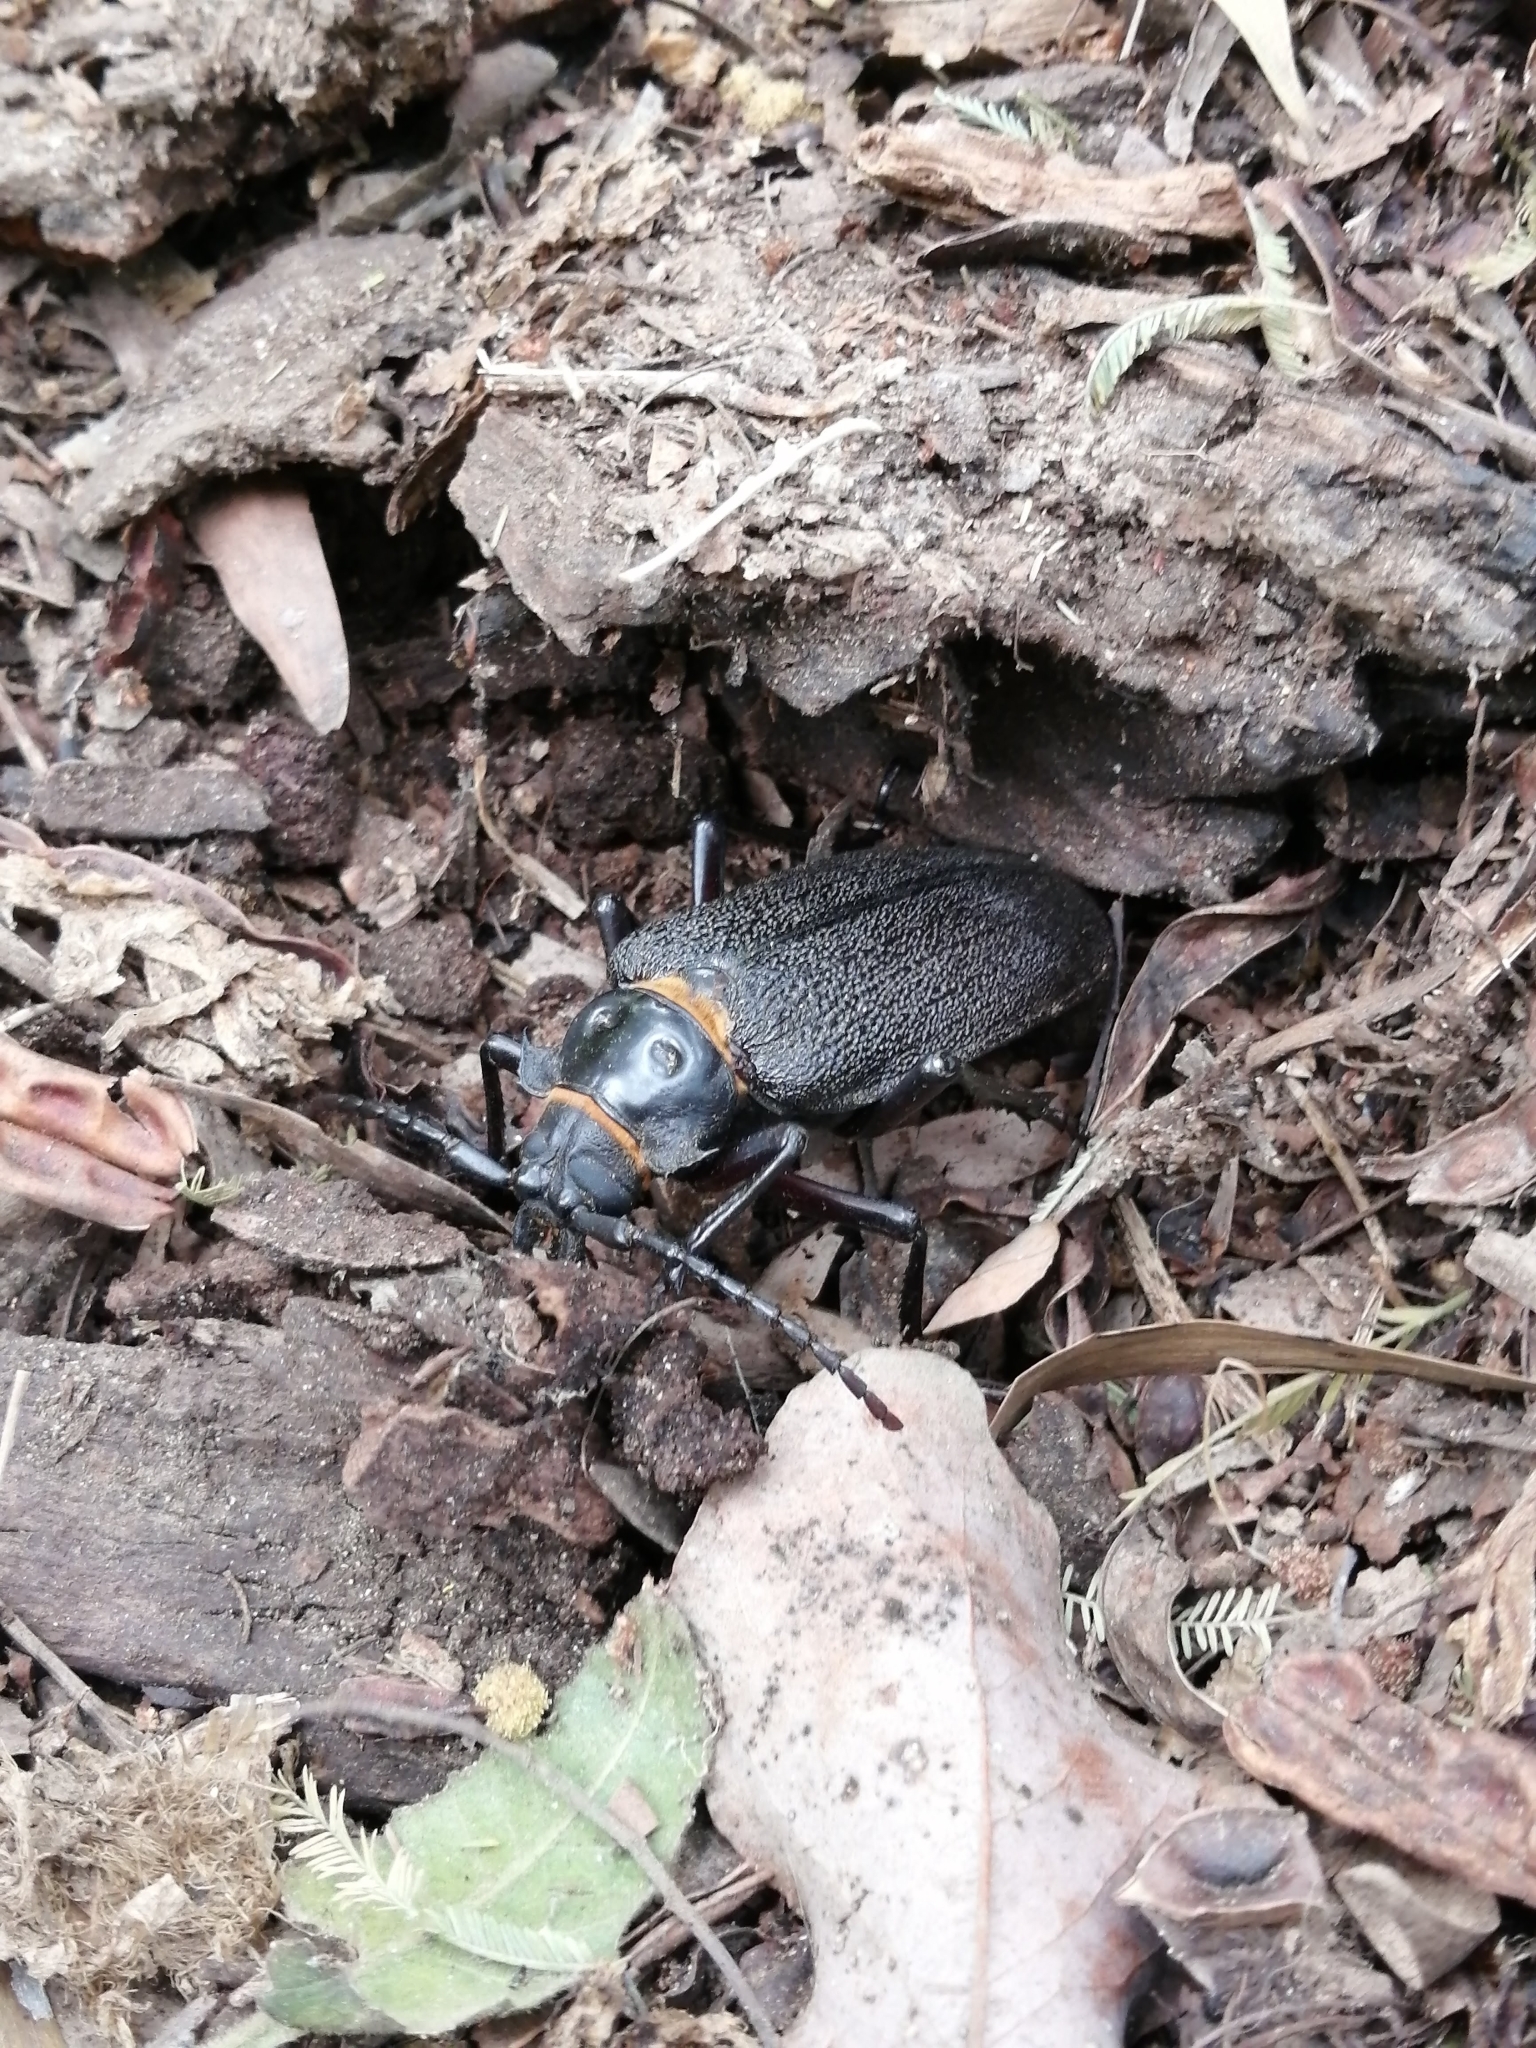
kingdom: Animalia
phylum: Arthropoda
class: Insecta
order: Coleoptera
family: Cerambycidae
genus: Acanthinodera
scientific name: Acanthinodera cumingii
